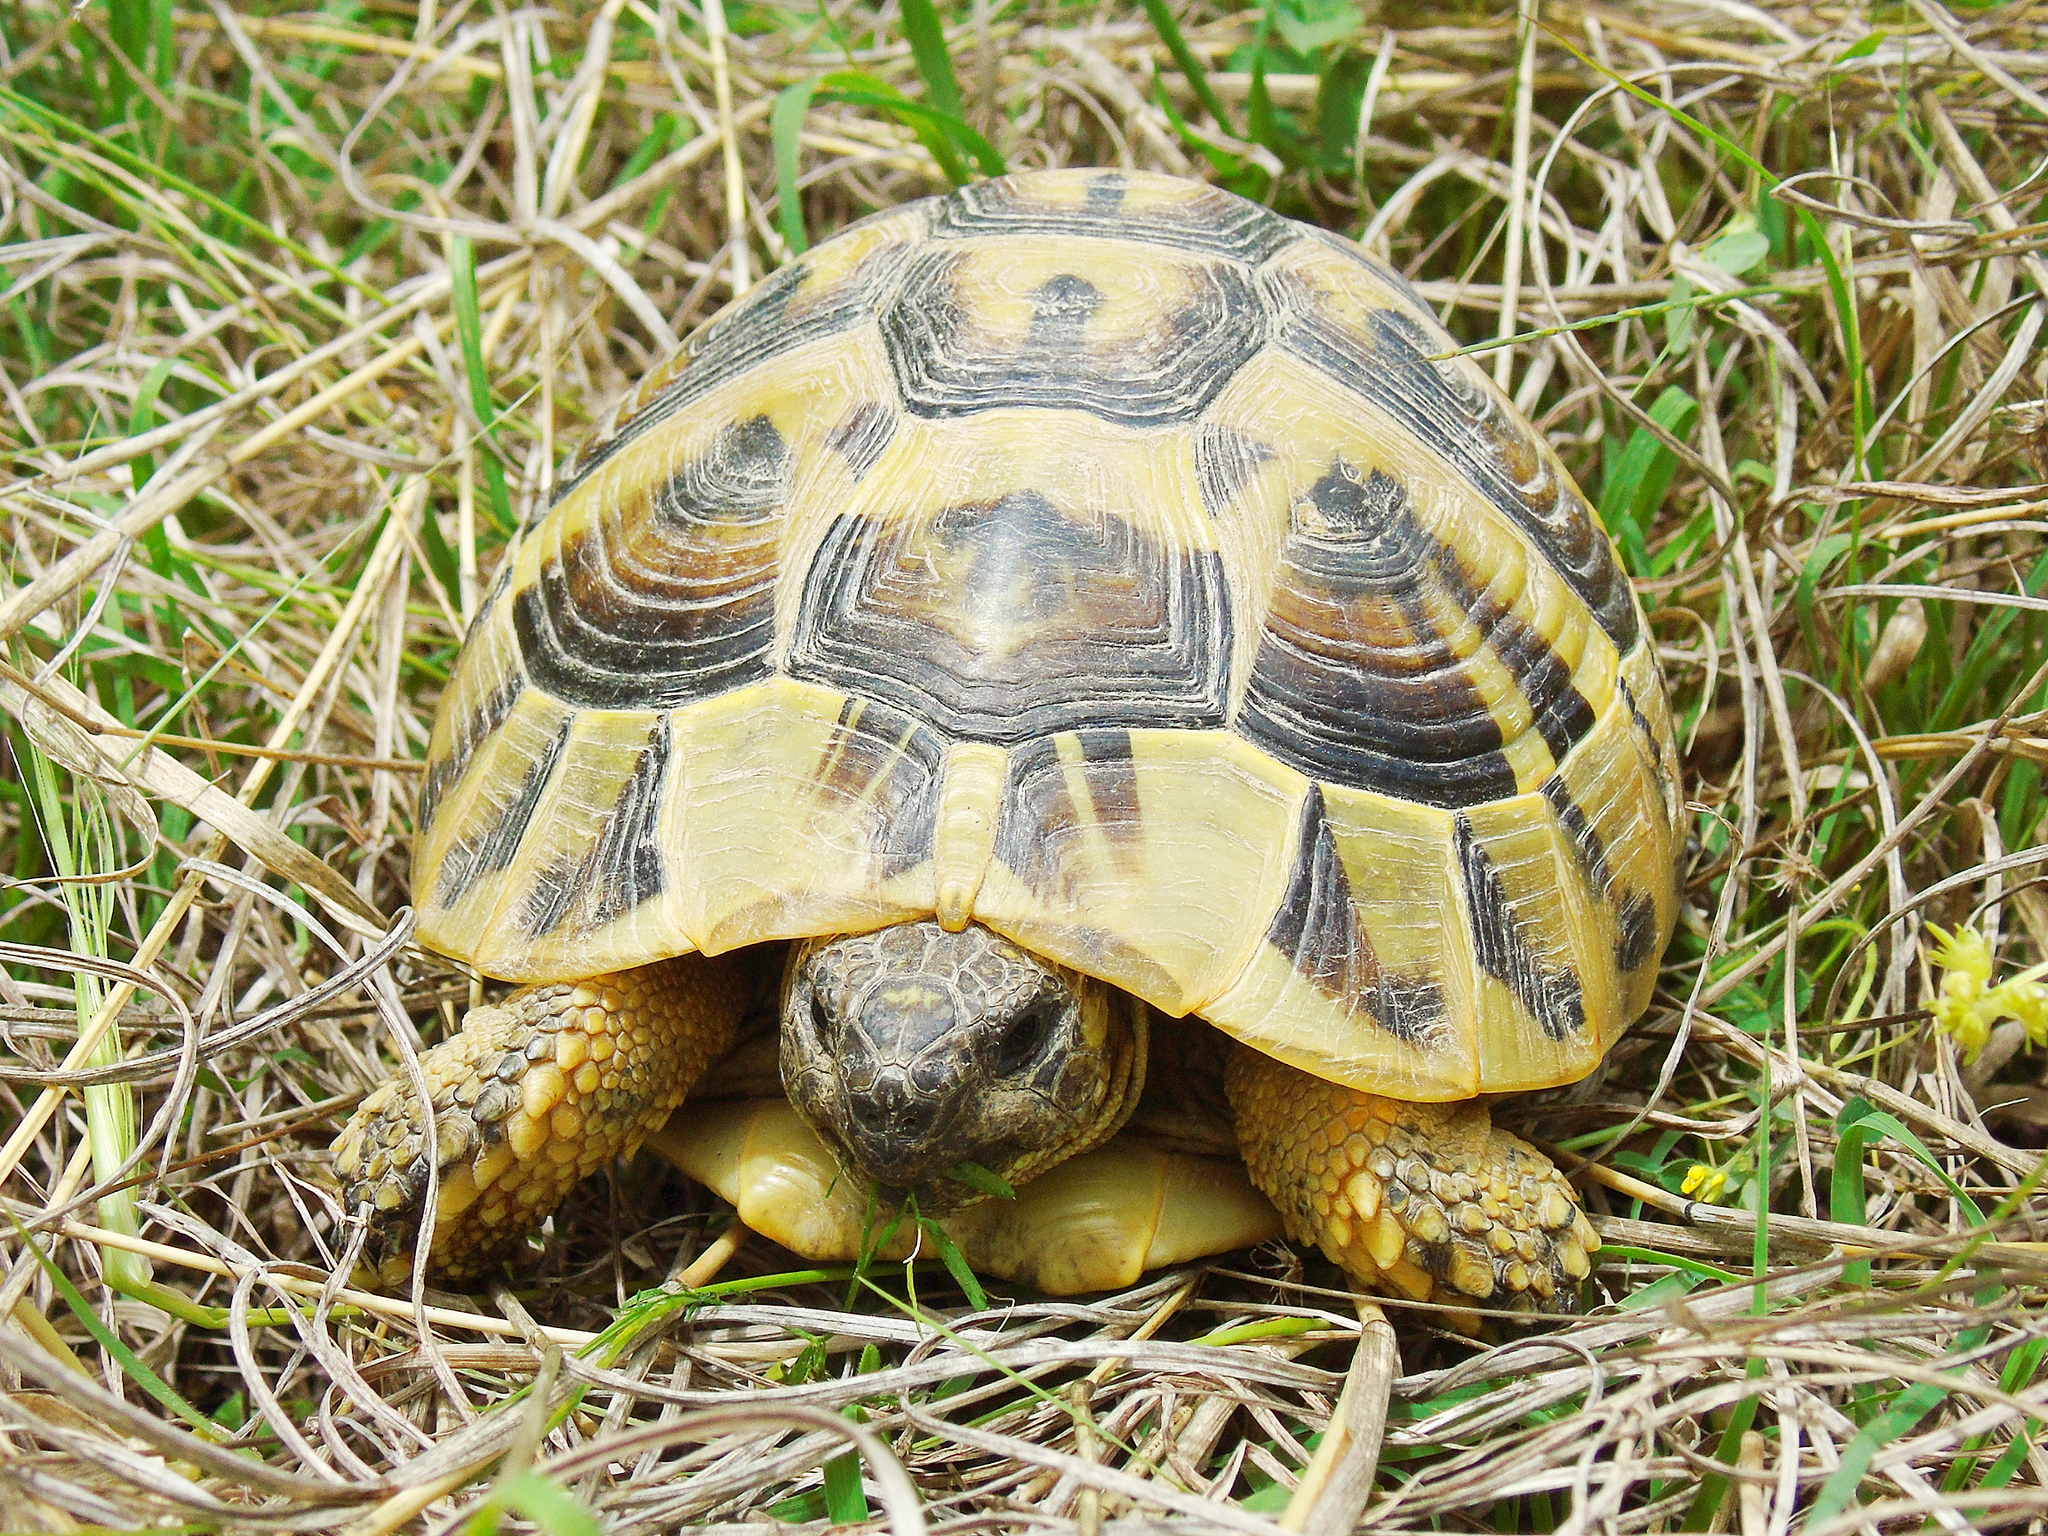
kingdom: Animalia
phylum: Chordata
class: Testudines
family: Testudinidae
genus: Testudo
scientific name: Testudo hermanni
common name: Hermann's tortoise
